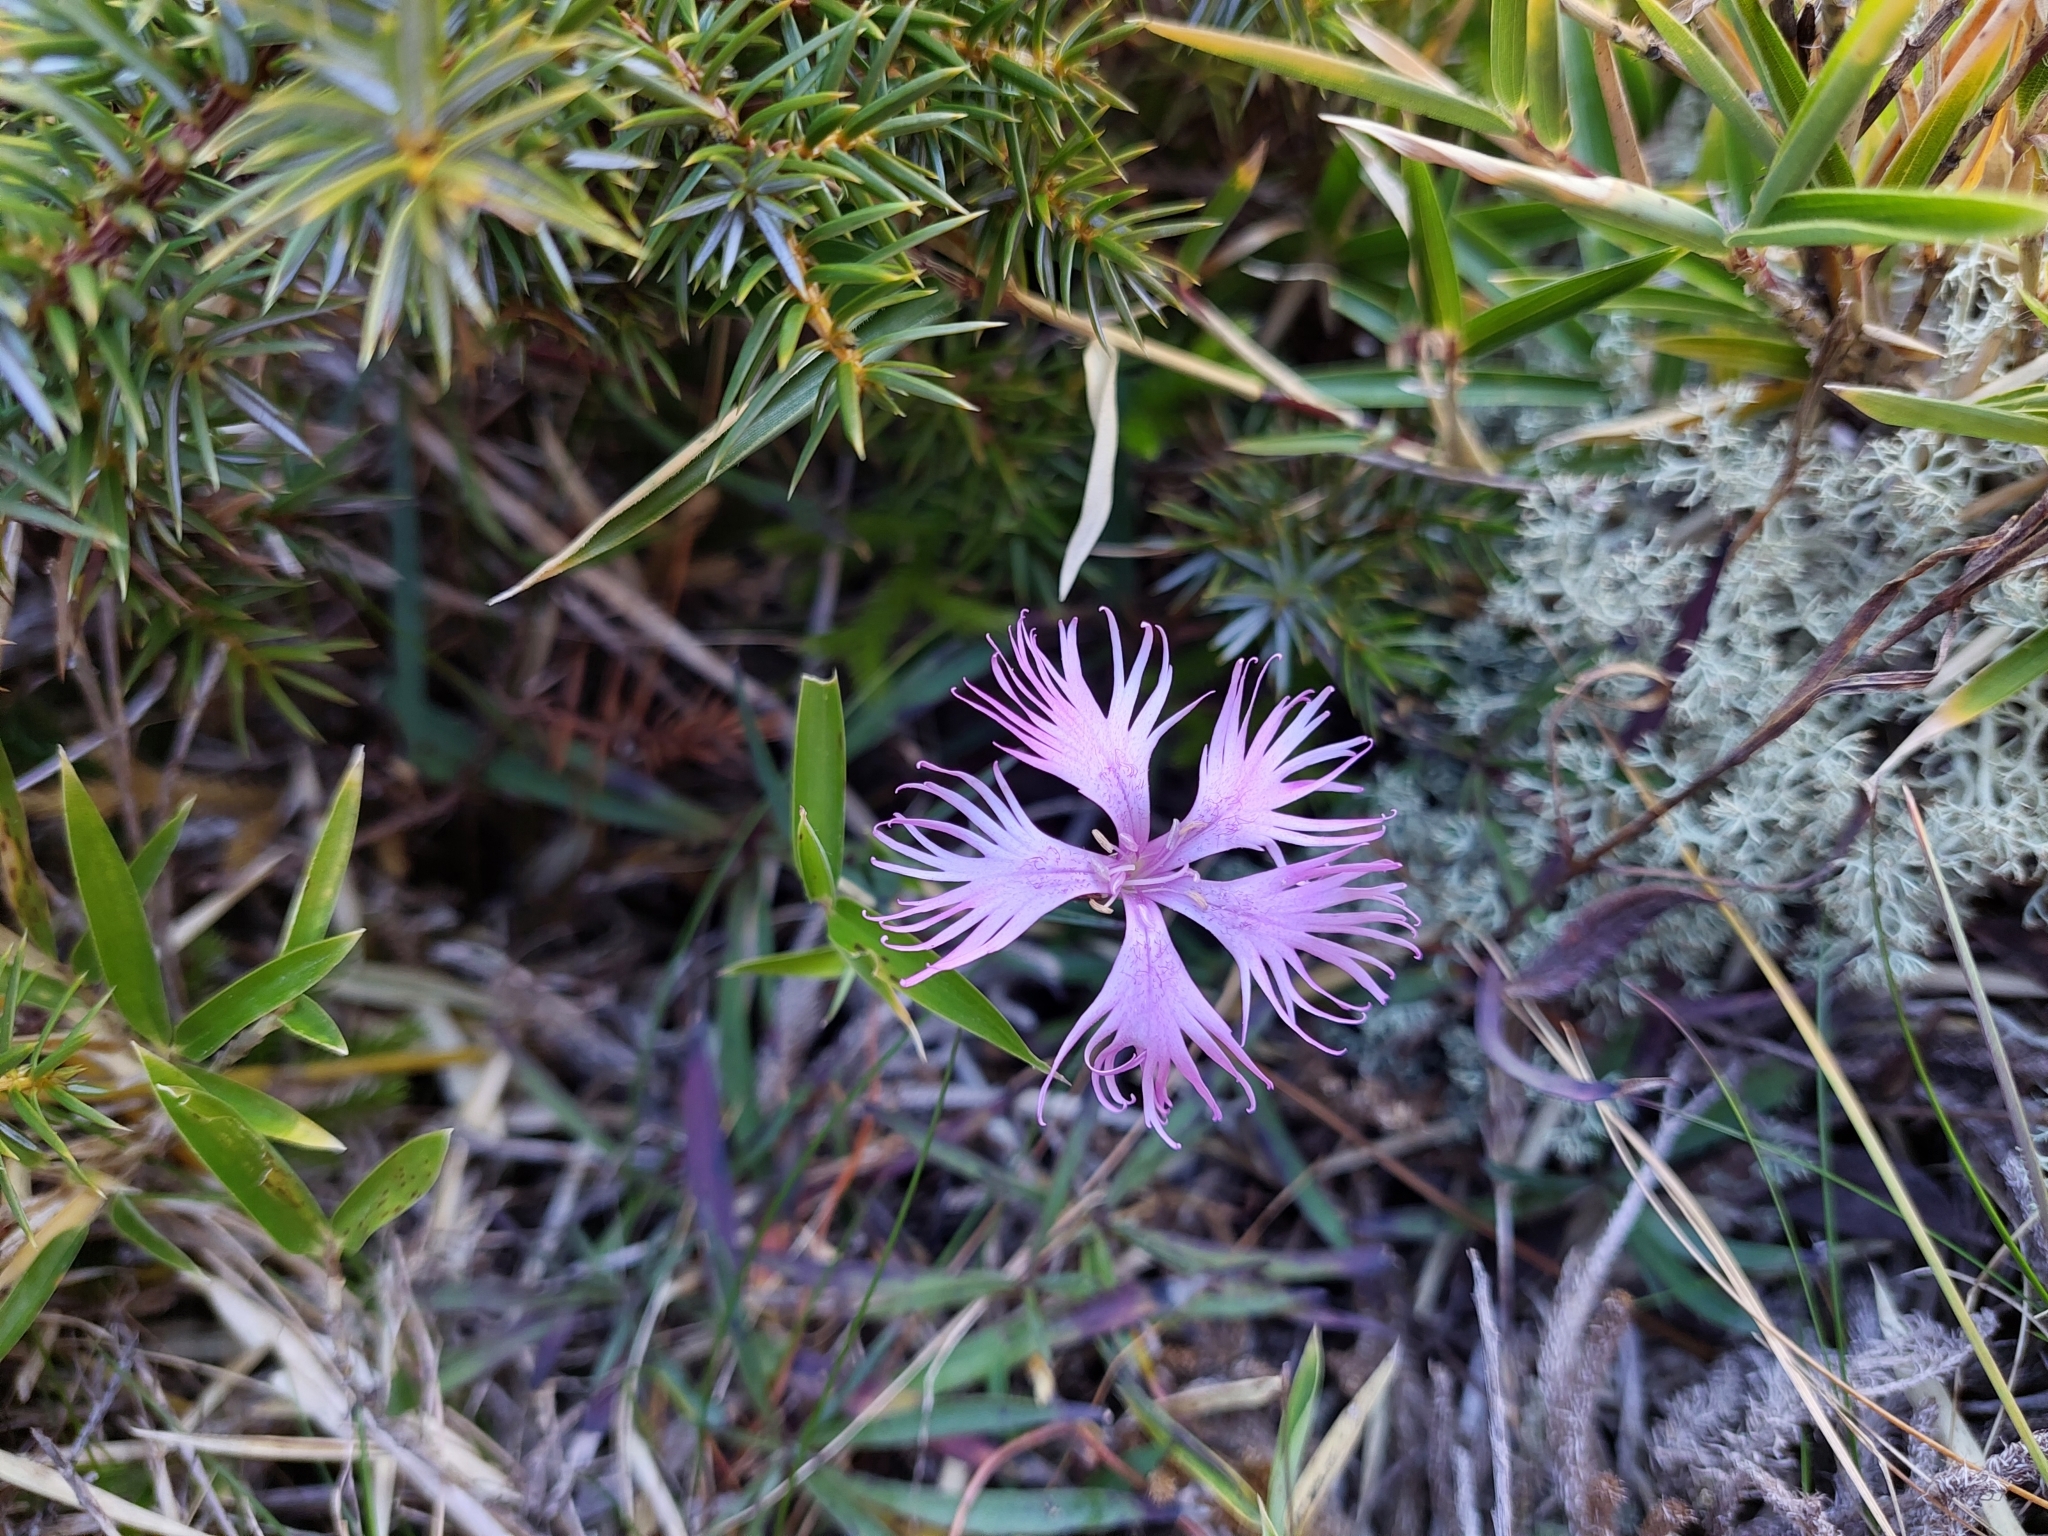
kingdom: Plantae
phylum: Tracheophyta
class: Magnoliopsida
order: Caryophyllales
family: Caryophyllaceae
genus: Dianthus
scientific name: Dianthus pygmaeus
